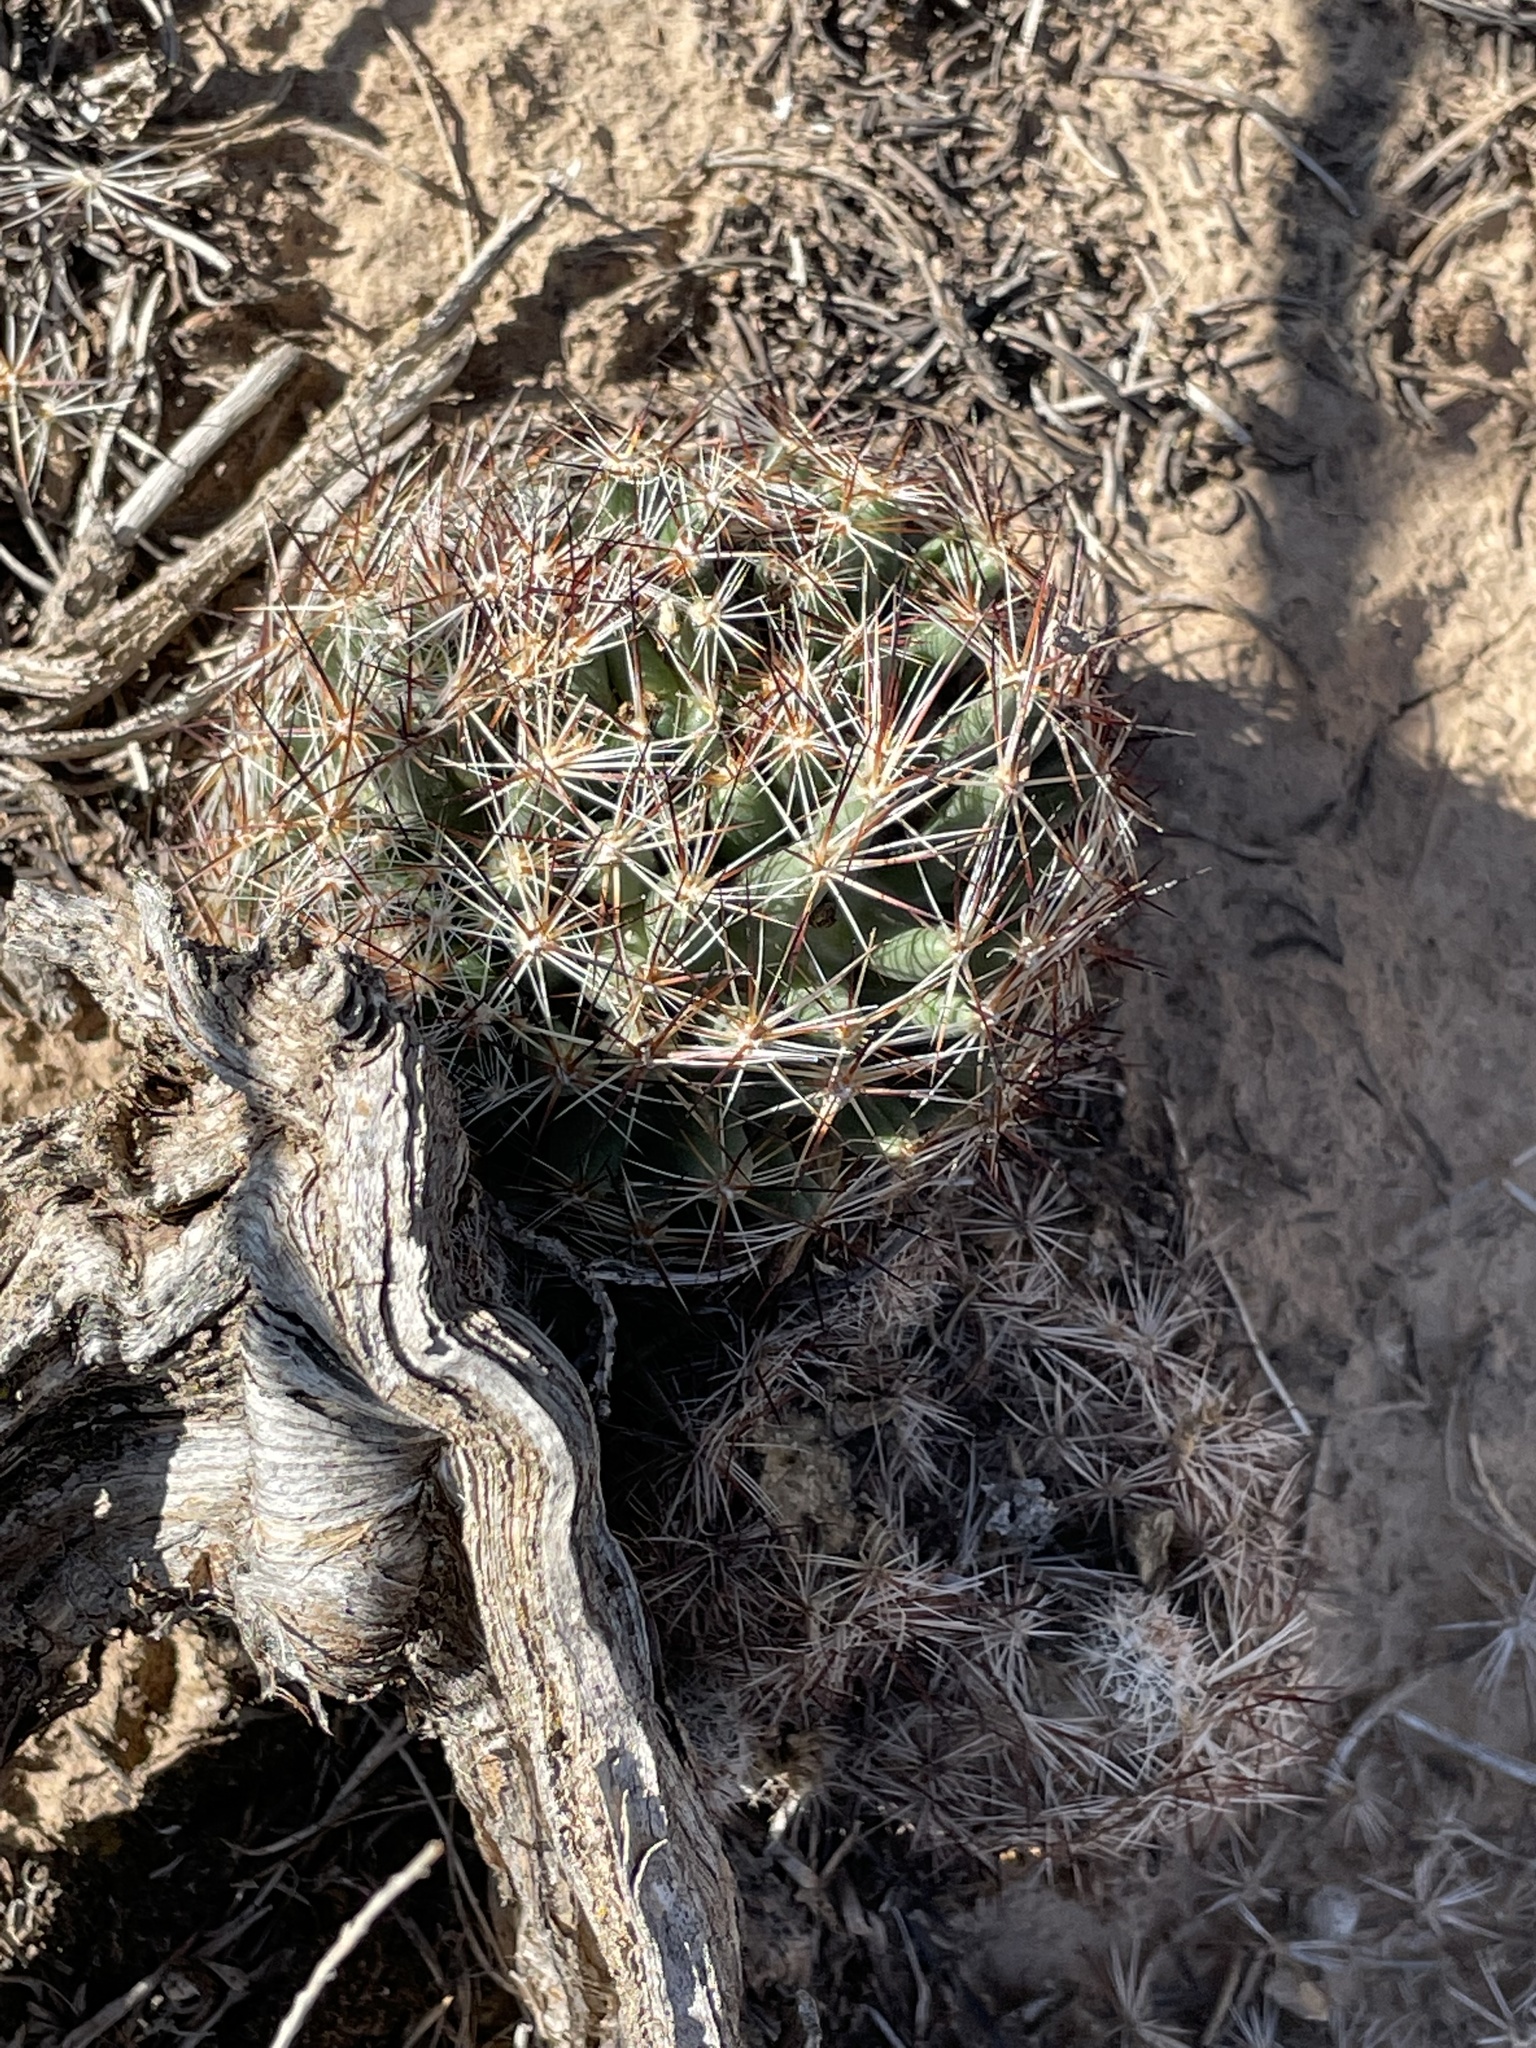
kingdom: Plantae
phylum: Tracheophyta
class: Magnoliopsida
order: Caryophyllales
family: Cactaceae
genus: Pelecyphora
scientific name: Pelecyphora vivipara
